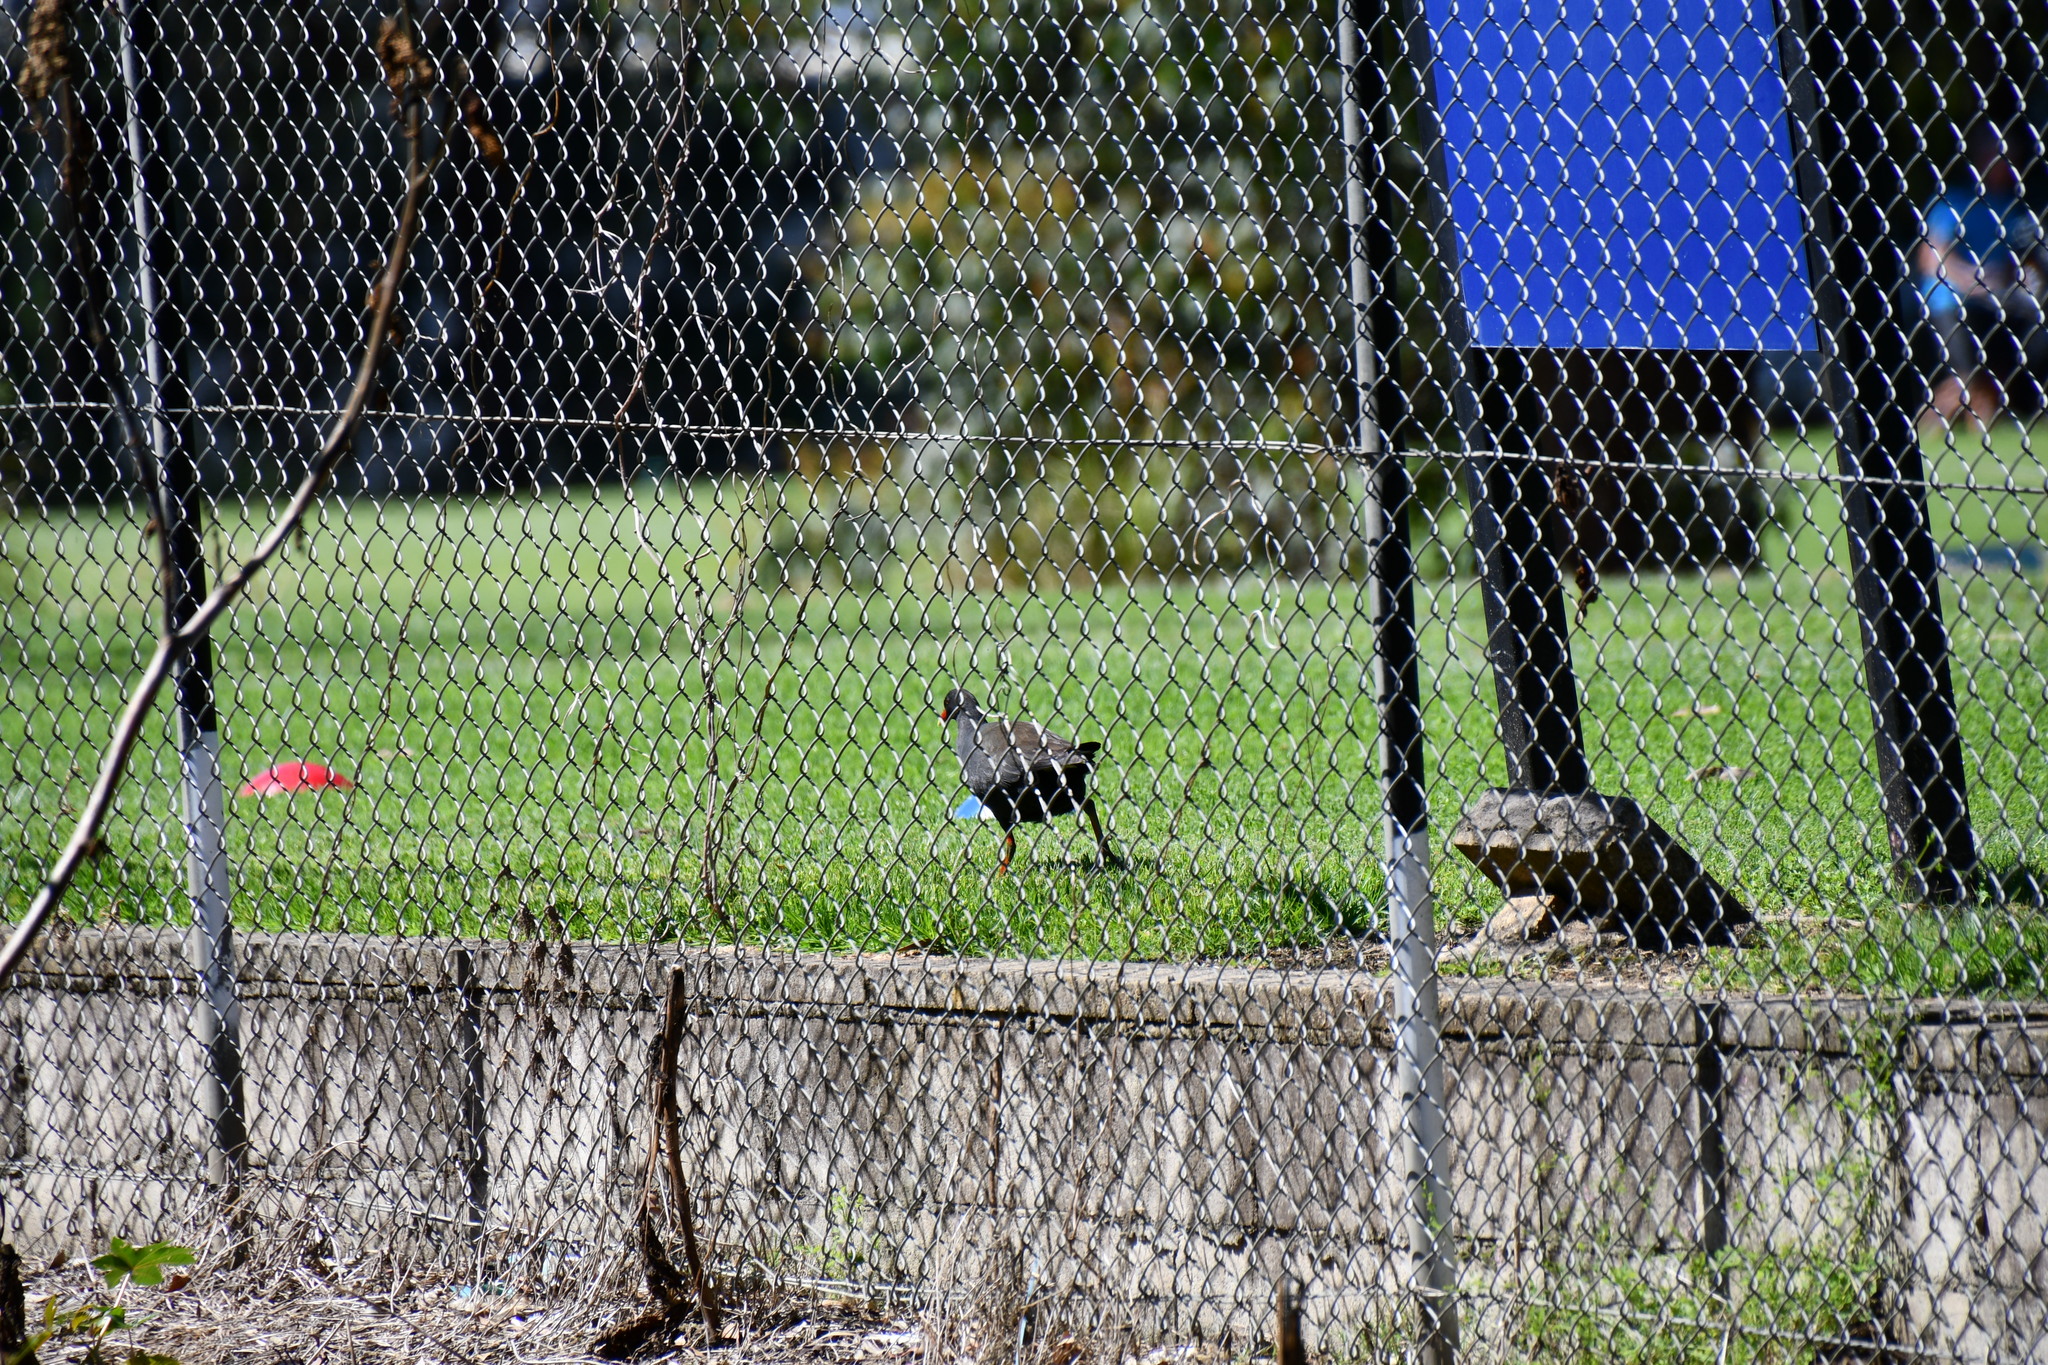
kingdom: Animalia
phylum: Chordata
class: Aves
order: Gruiformes
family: Rallidae
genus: Gallinula
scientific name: Gallinula tenebrosa
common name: Dusky moorhen
